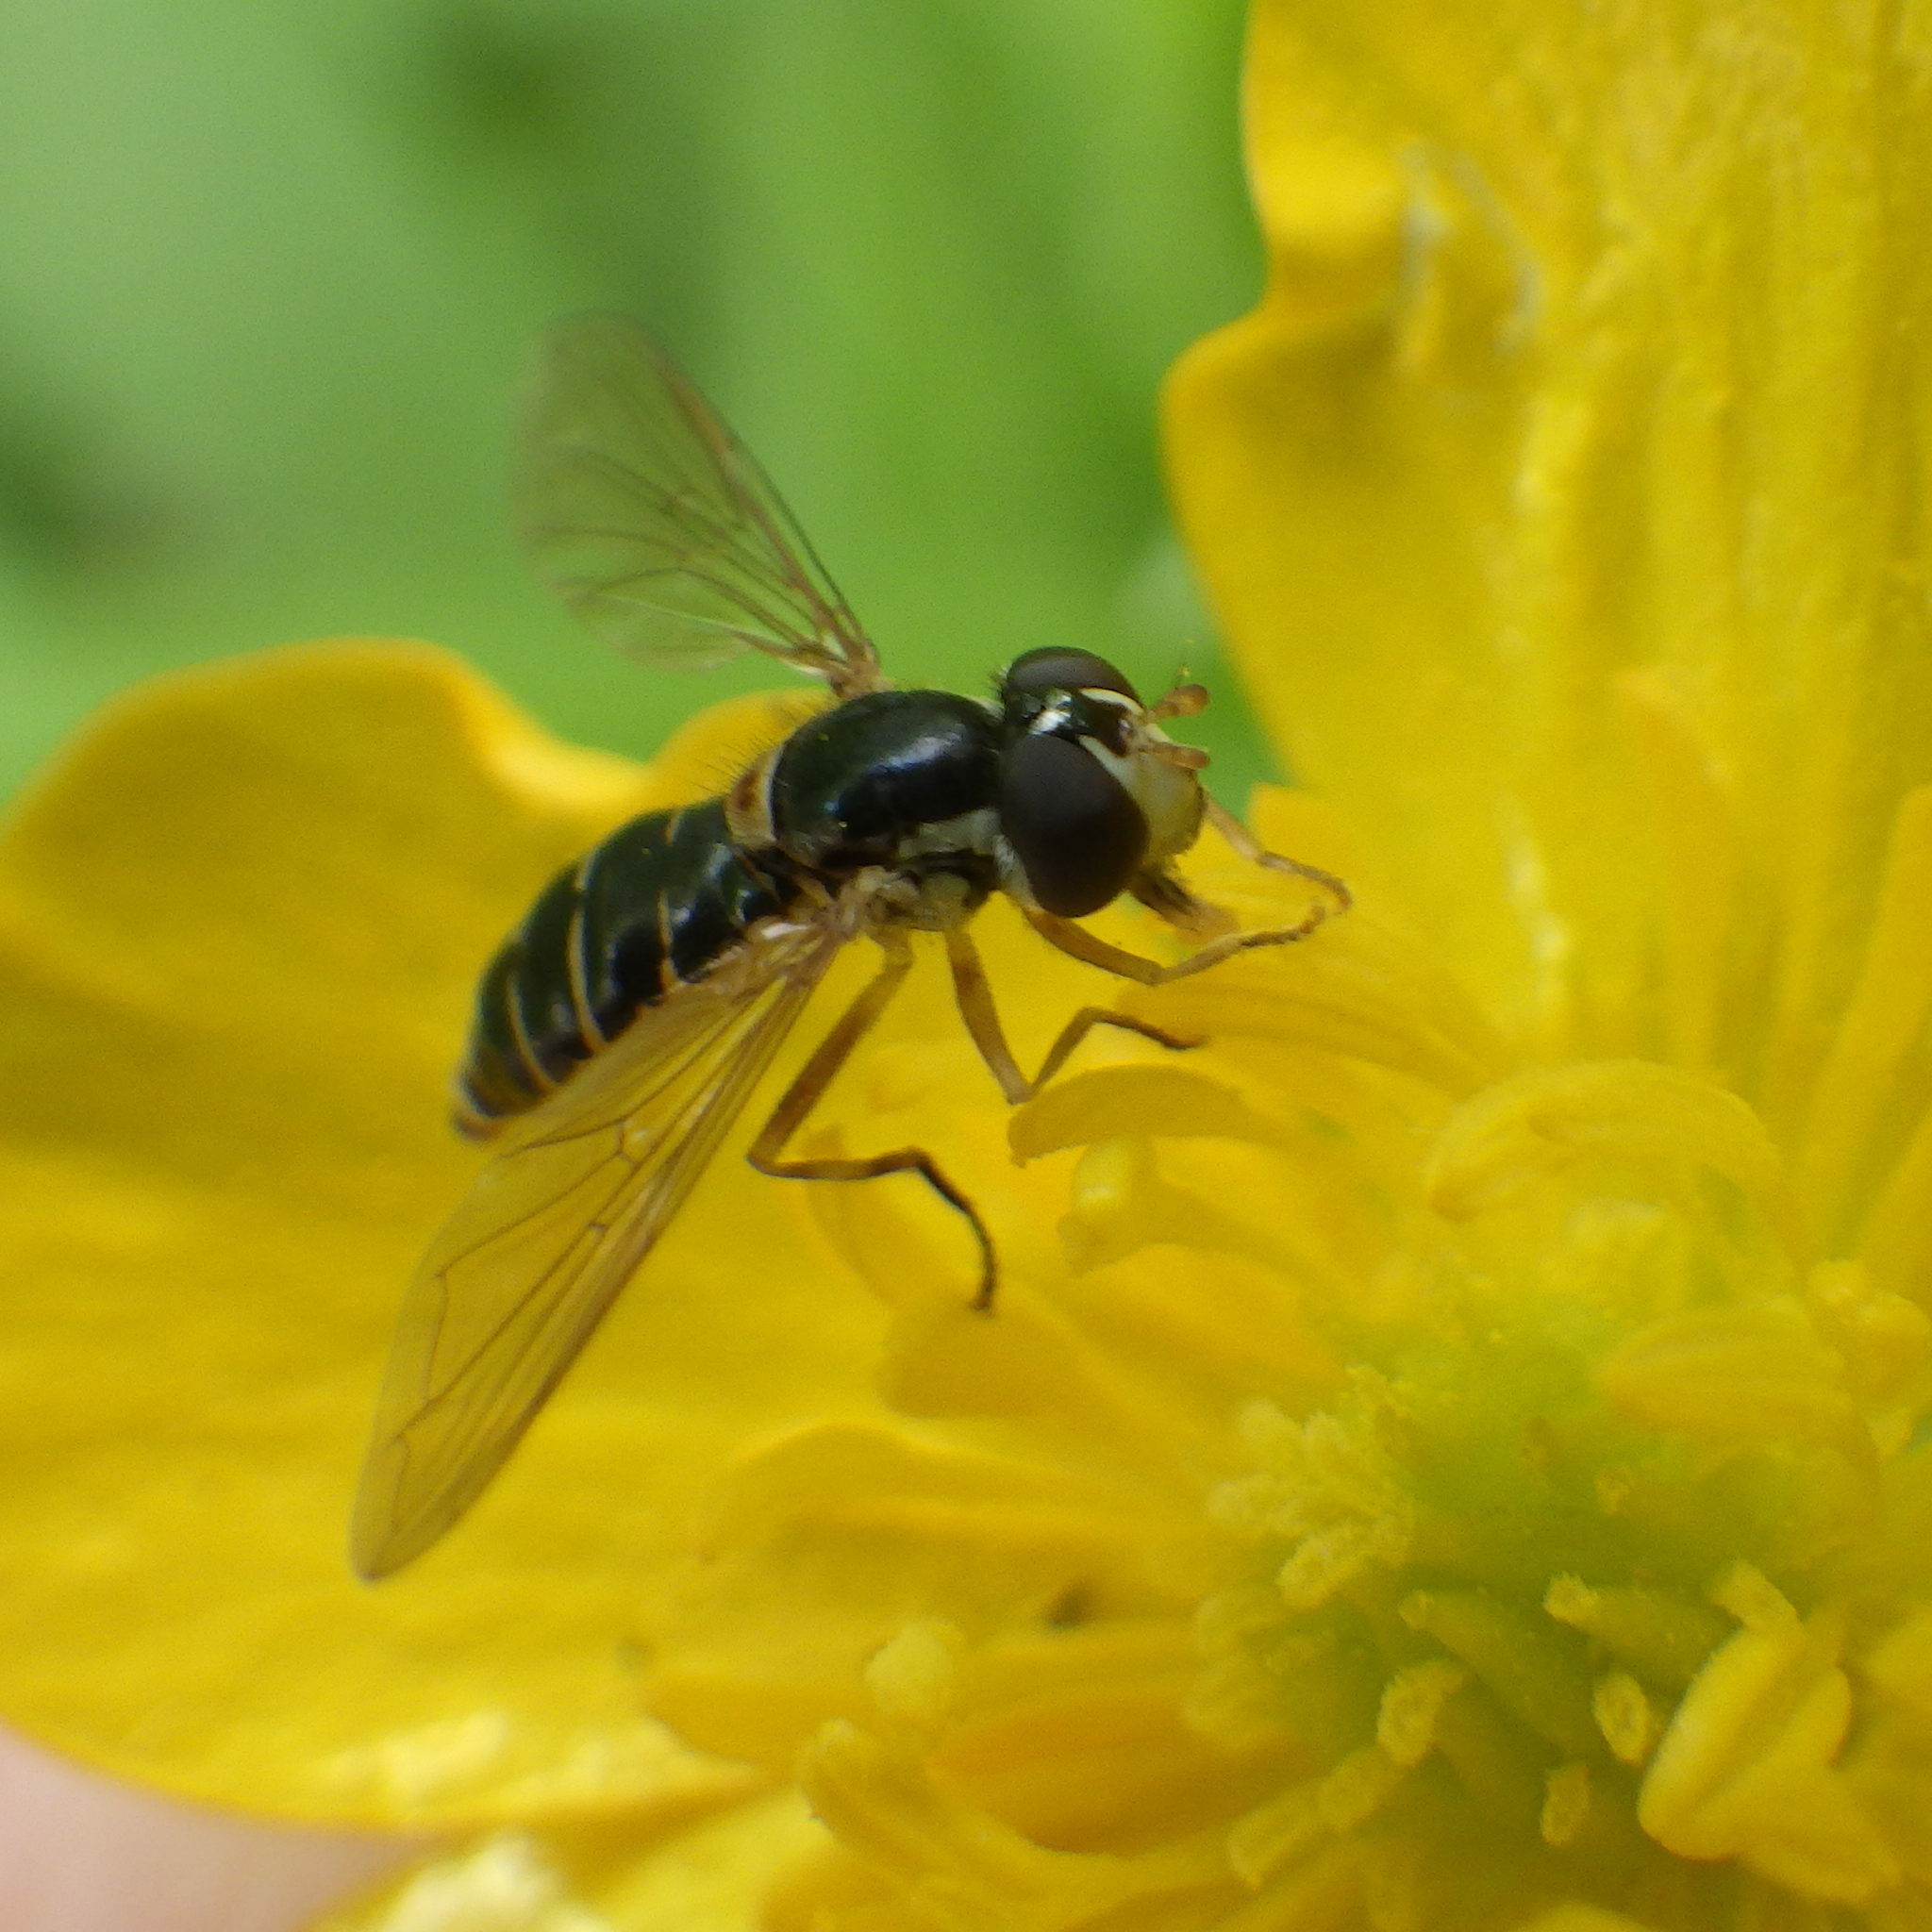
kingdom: Animalia
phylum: Arthropoda
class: Insecta
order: Diptera
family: Syrphidae
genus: Sphaerophoria
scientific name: Sphaerophoria bifurcata
